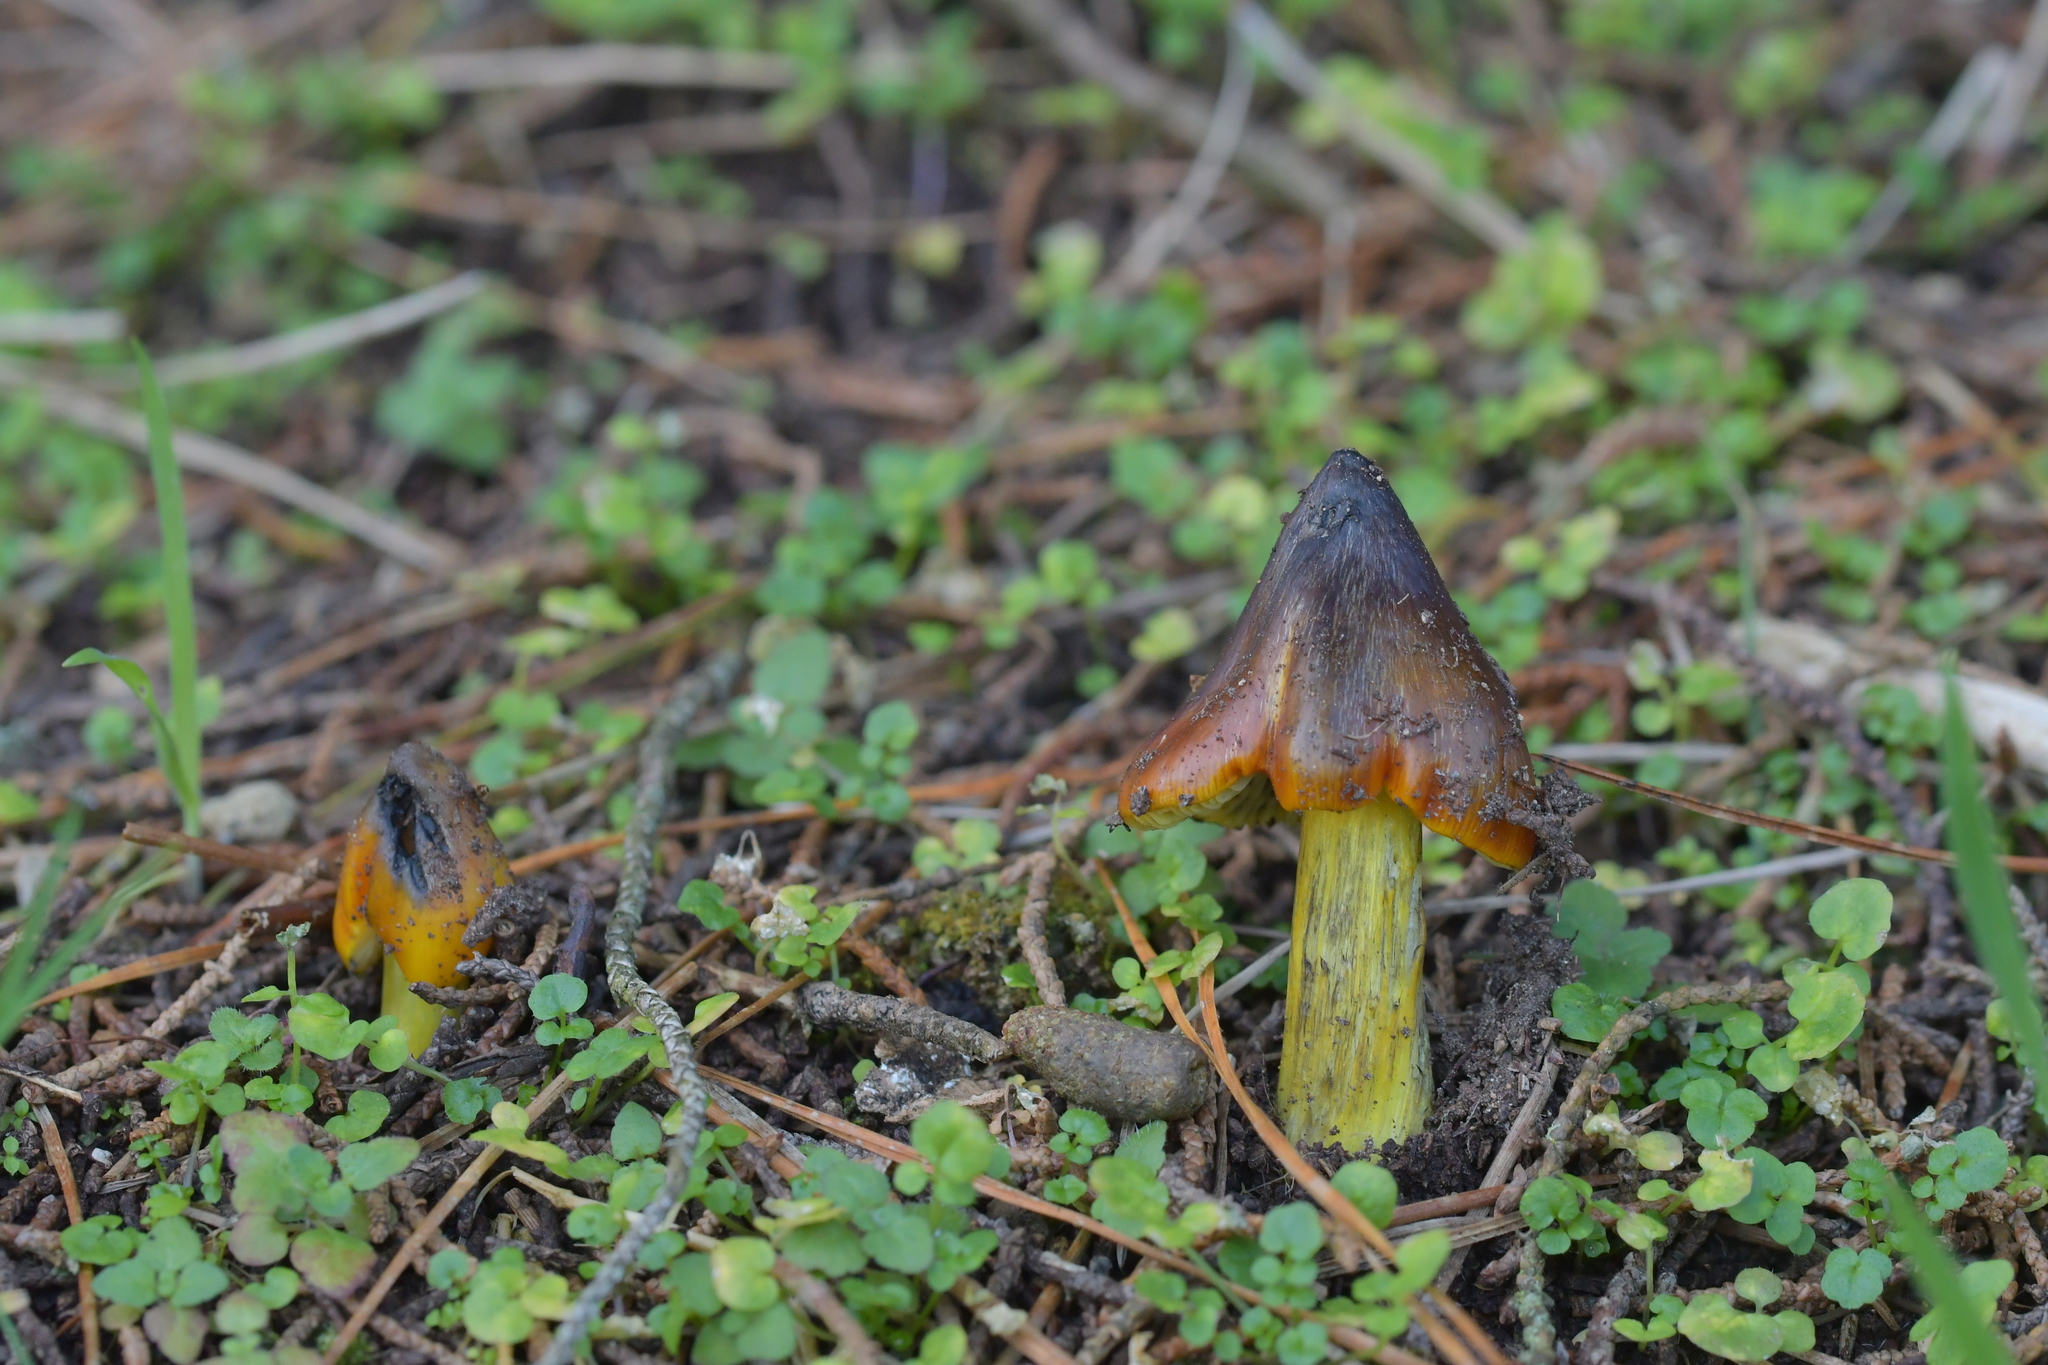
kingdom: Fungi
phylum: Basidiomycota
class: Agaricomycetes
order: Agaricales
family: Hygrophoraceae
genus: Hygrocybe
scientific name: Hygrocybe astatogala
